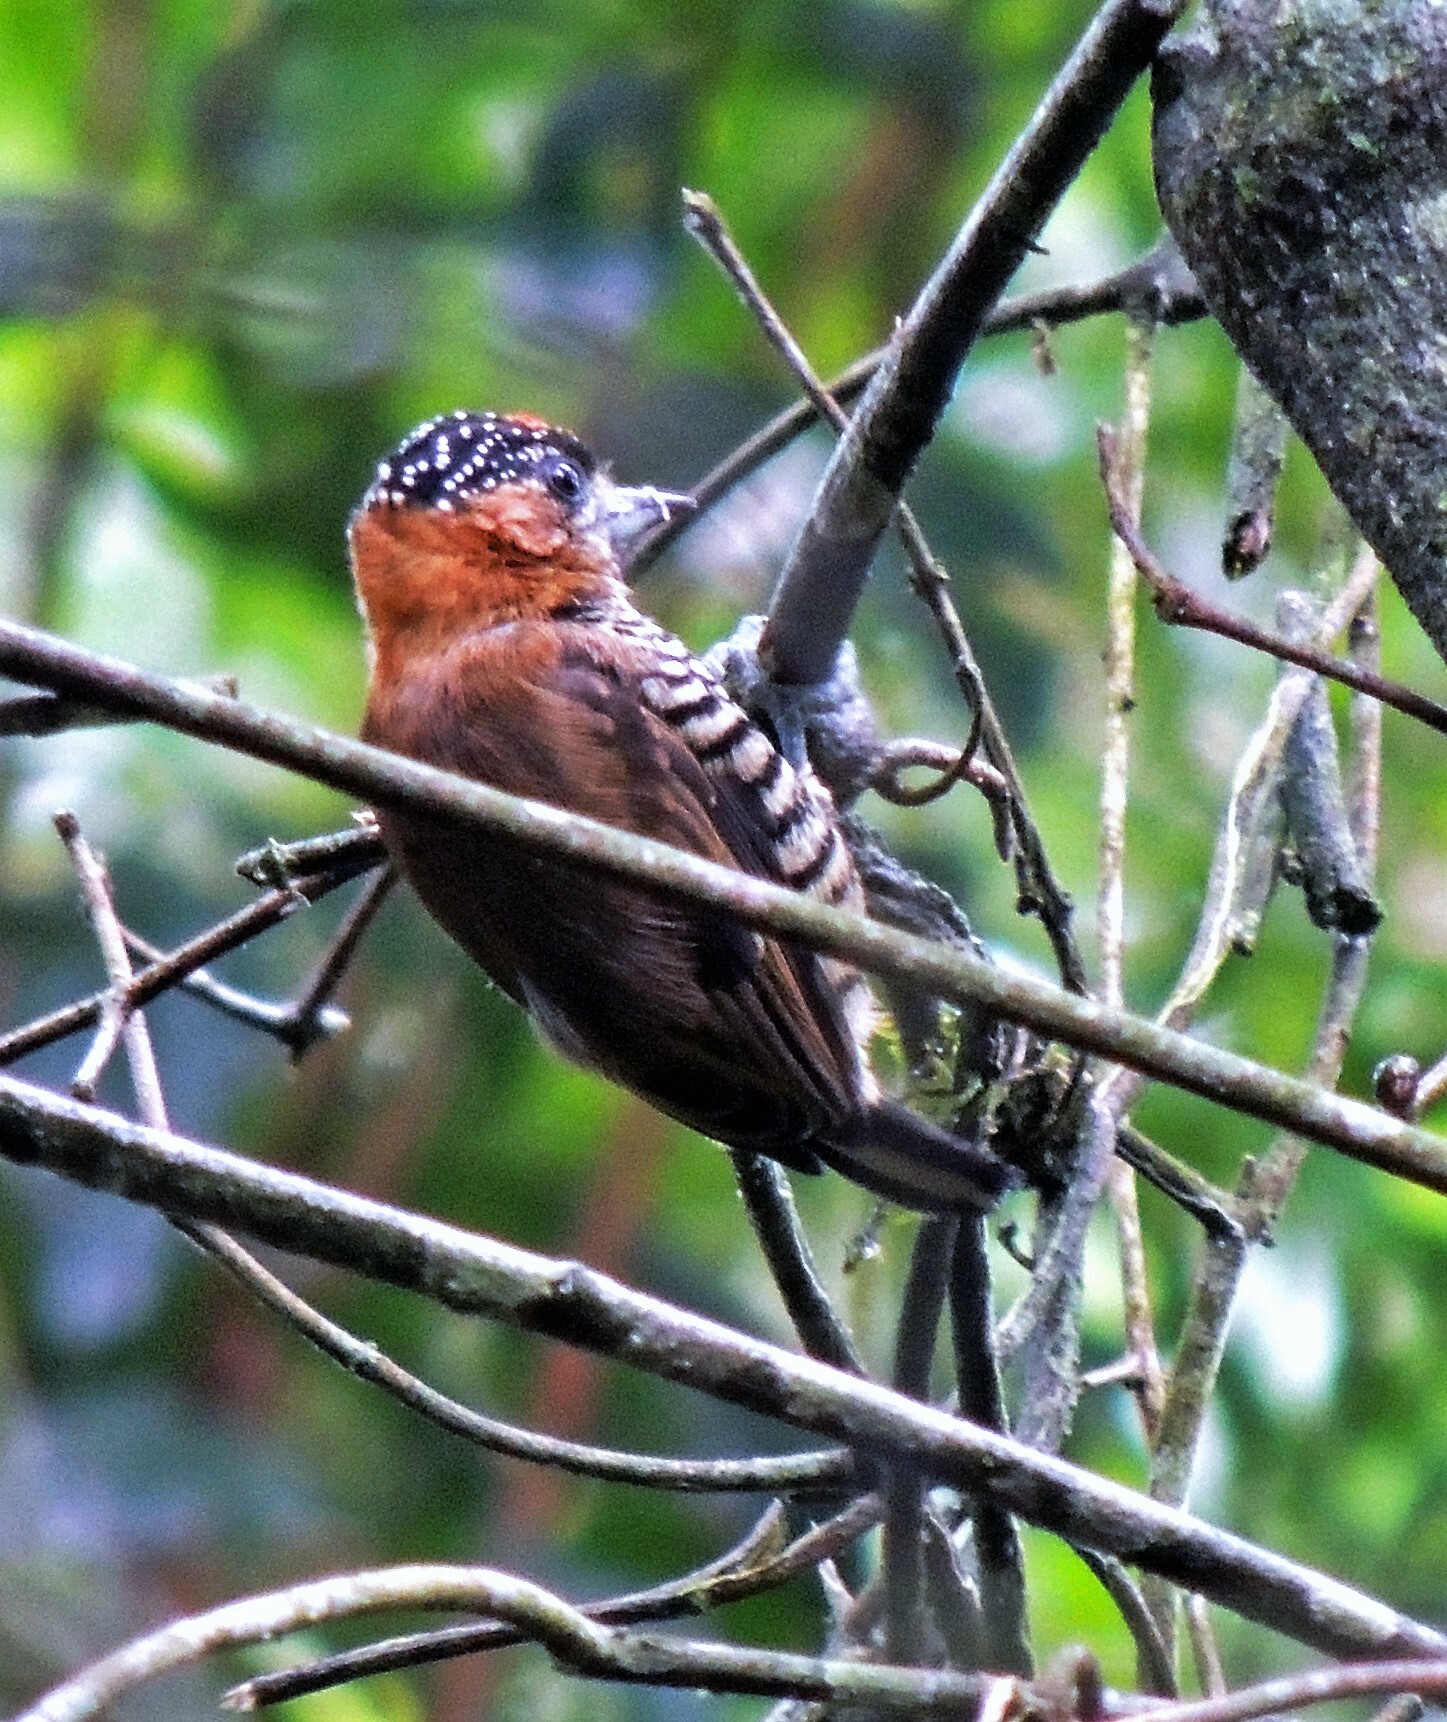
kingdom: Animalia
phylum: Chordata
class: Aves
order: Piciformes
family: Picidae
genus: Picumnus
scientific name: Picumnus temminckii
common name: Ochre-collared piculet
